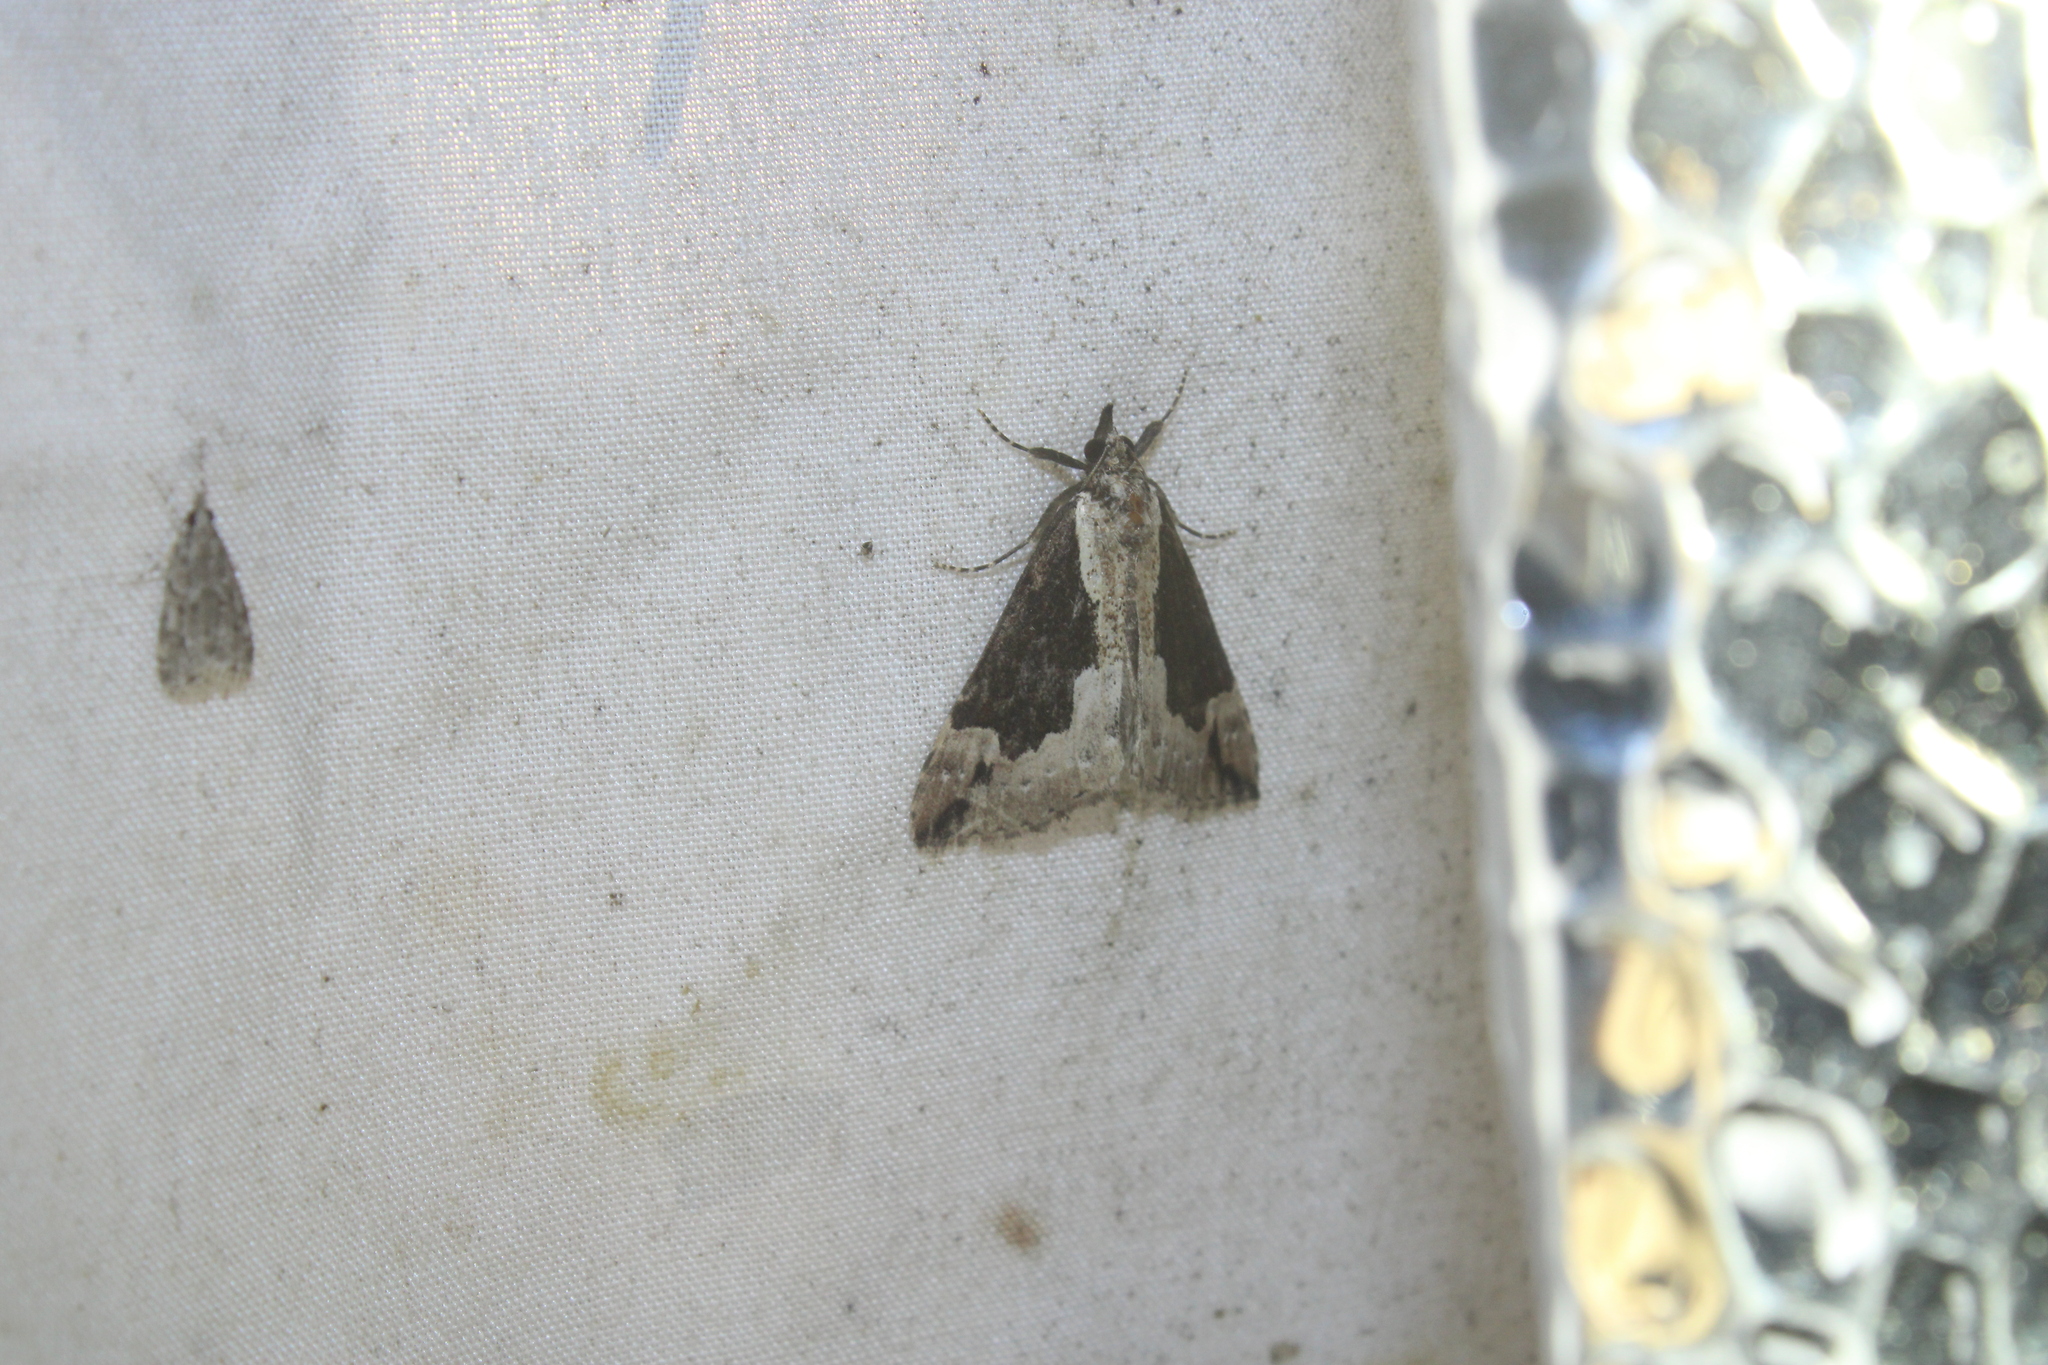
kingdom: Animalia
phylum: Arthropoda
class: Insecta
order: Lepidoptera
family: Erebidae
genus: Hypena
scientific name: Hypena baltimoralis
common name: Baltimore snout
